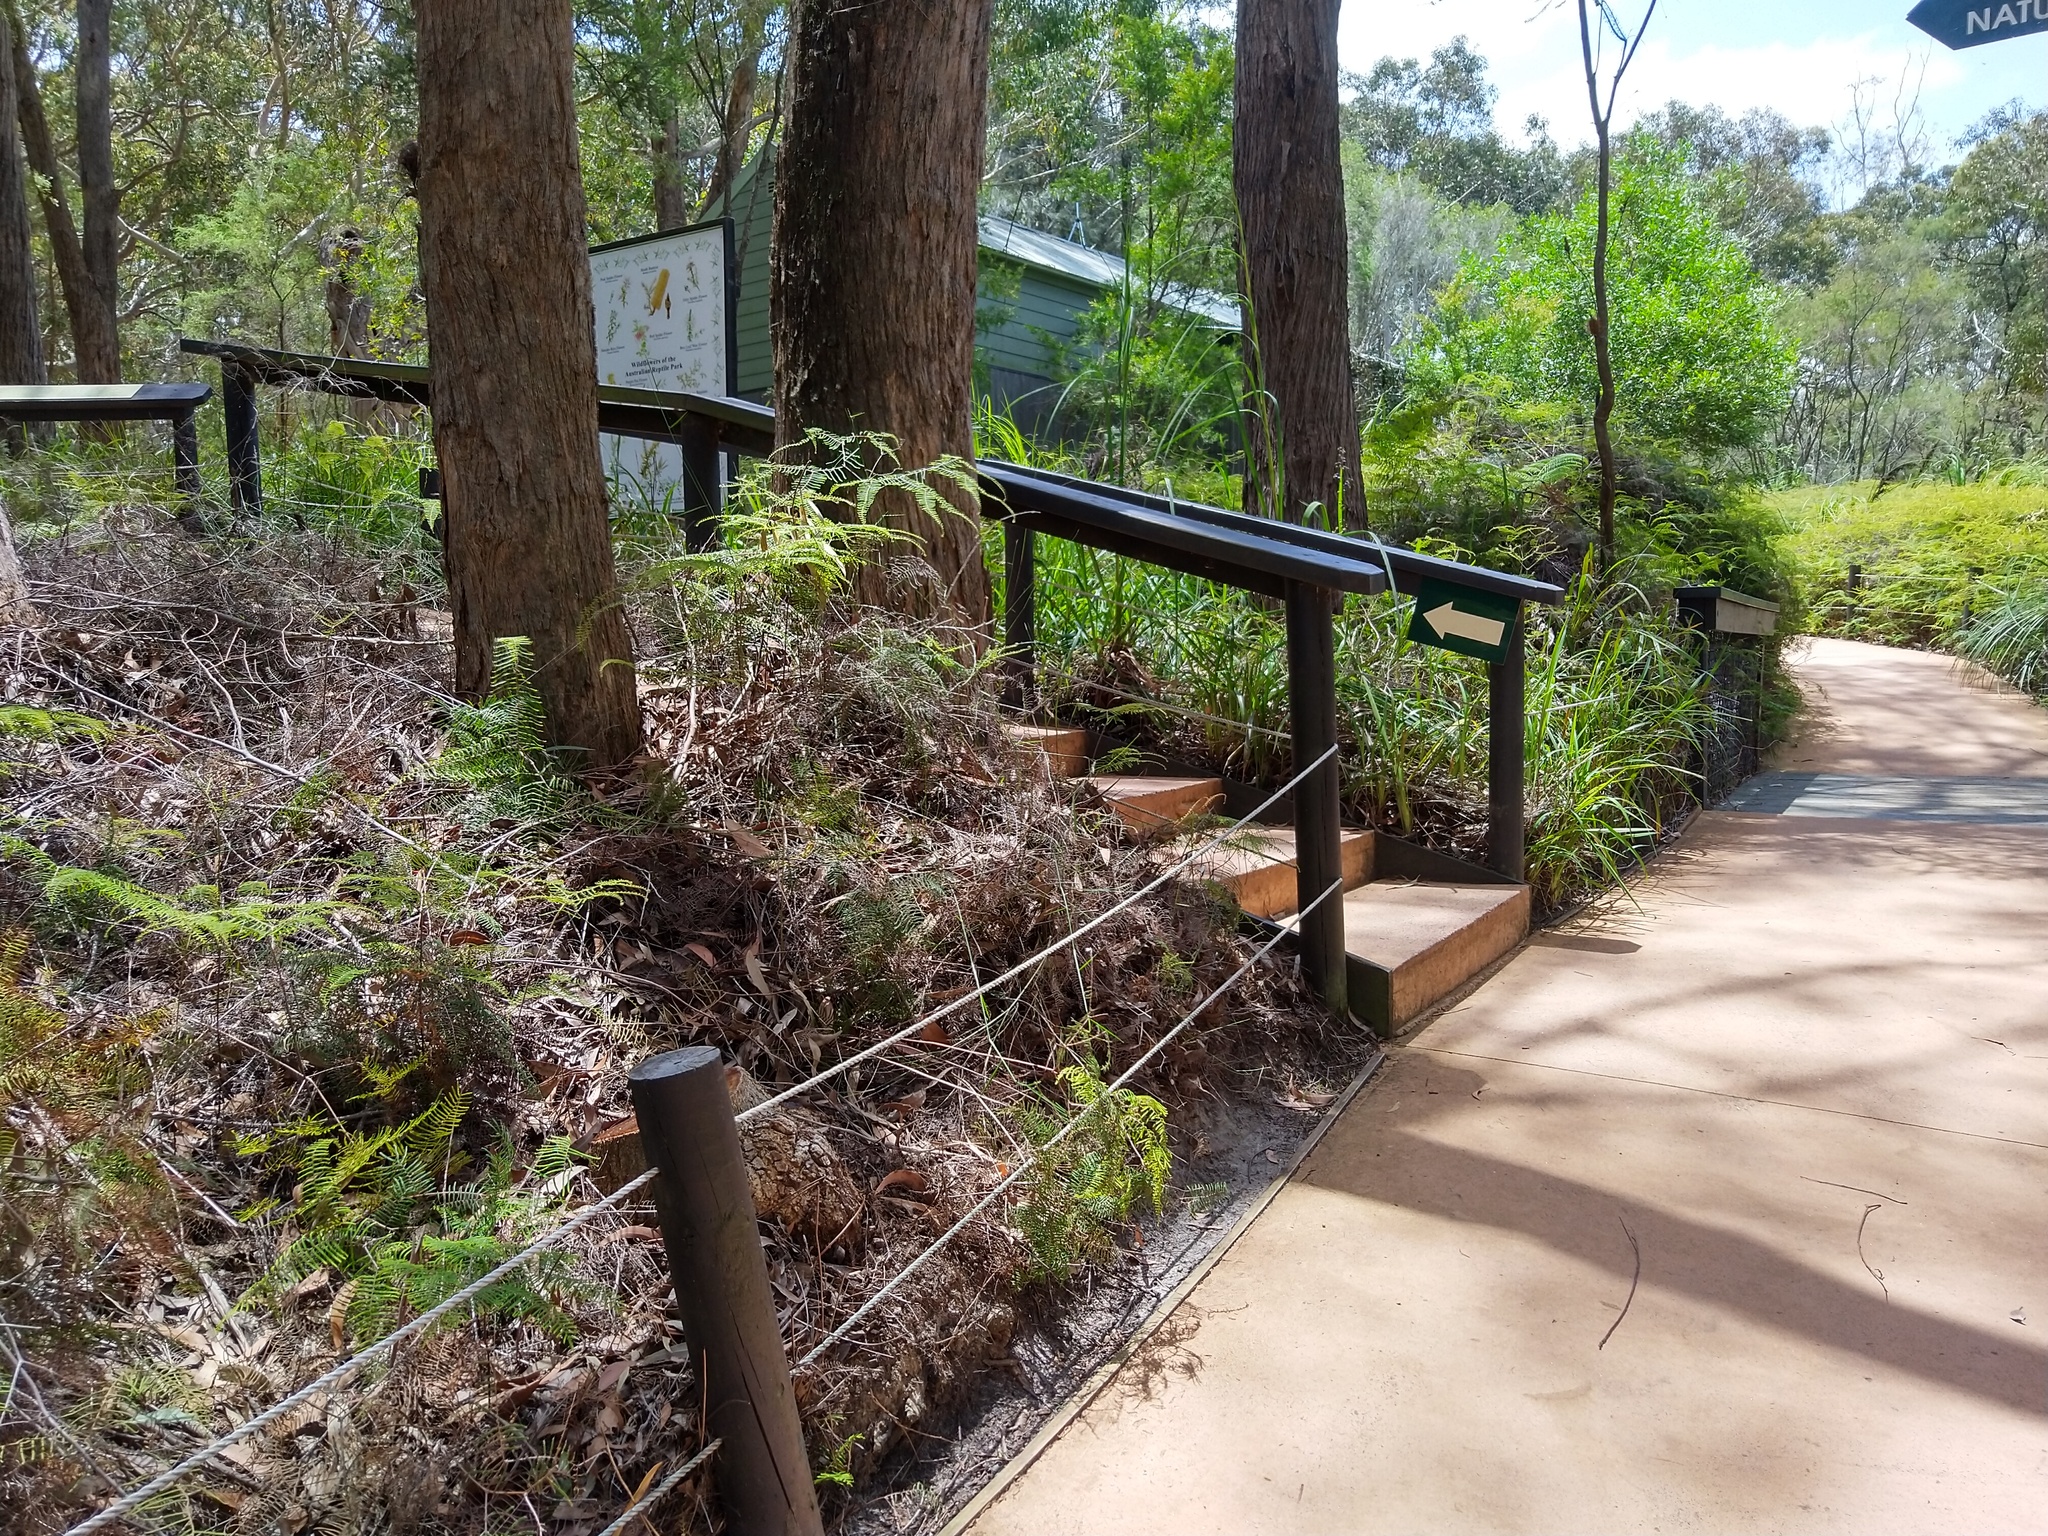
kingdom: Plantae
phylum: Tracheophyta
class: Liliopsida
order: Asparagales
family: Orchidaceae
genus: Cryptostylis
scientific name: Cryptostylis erecta
